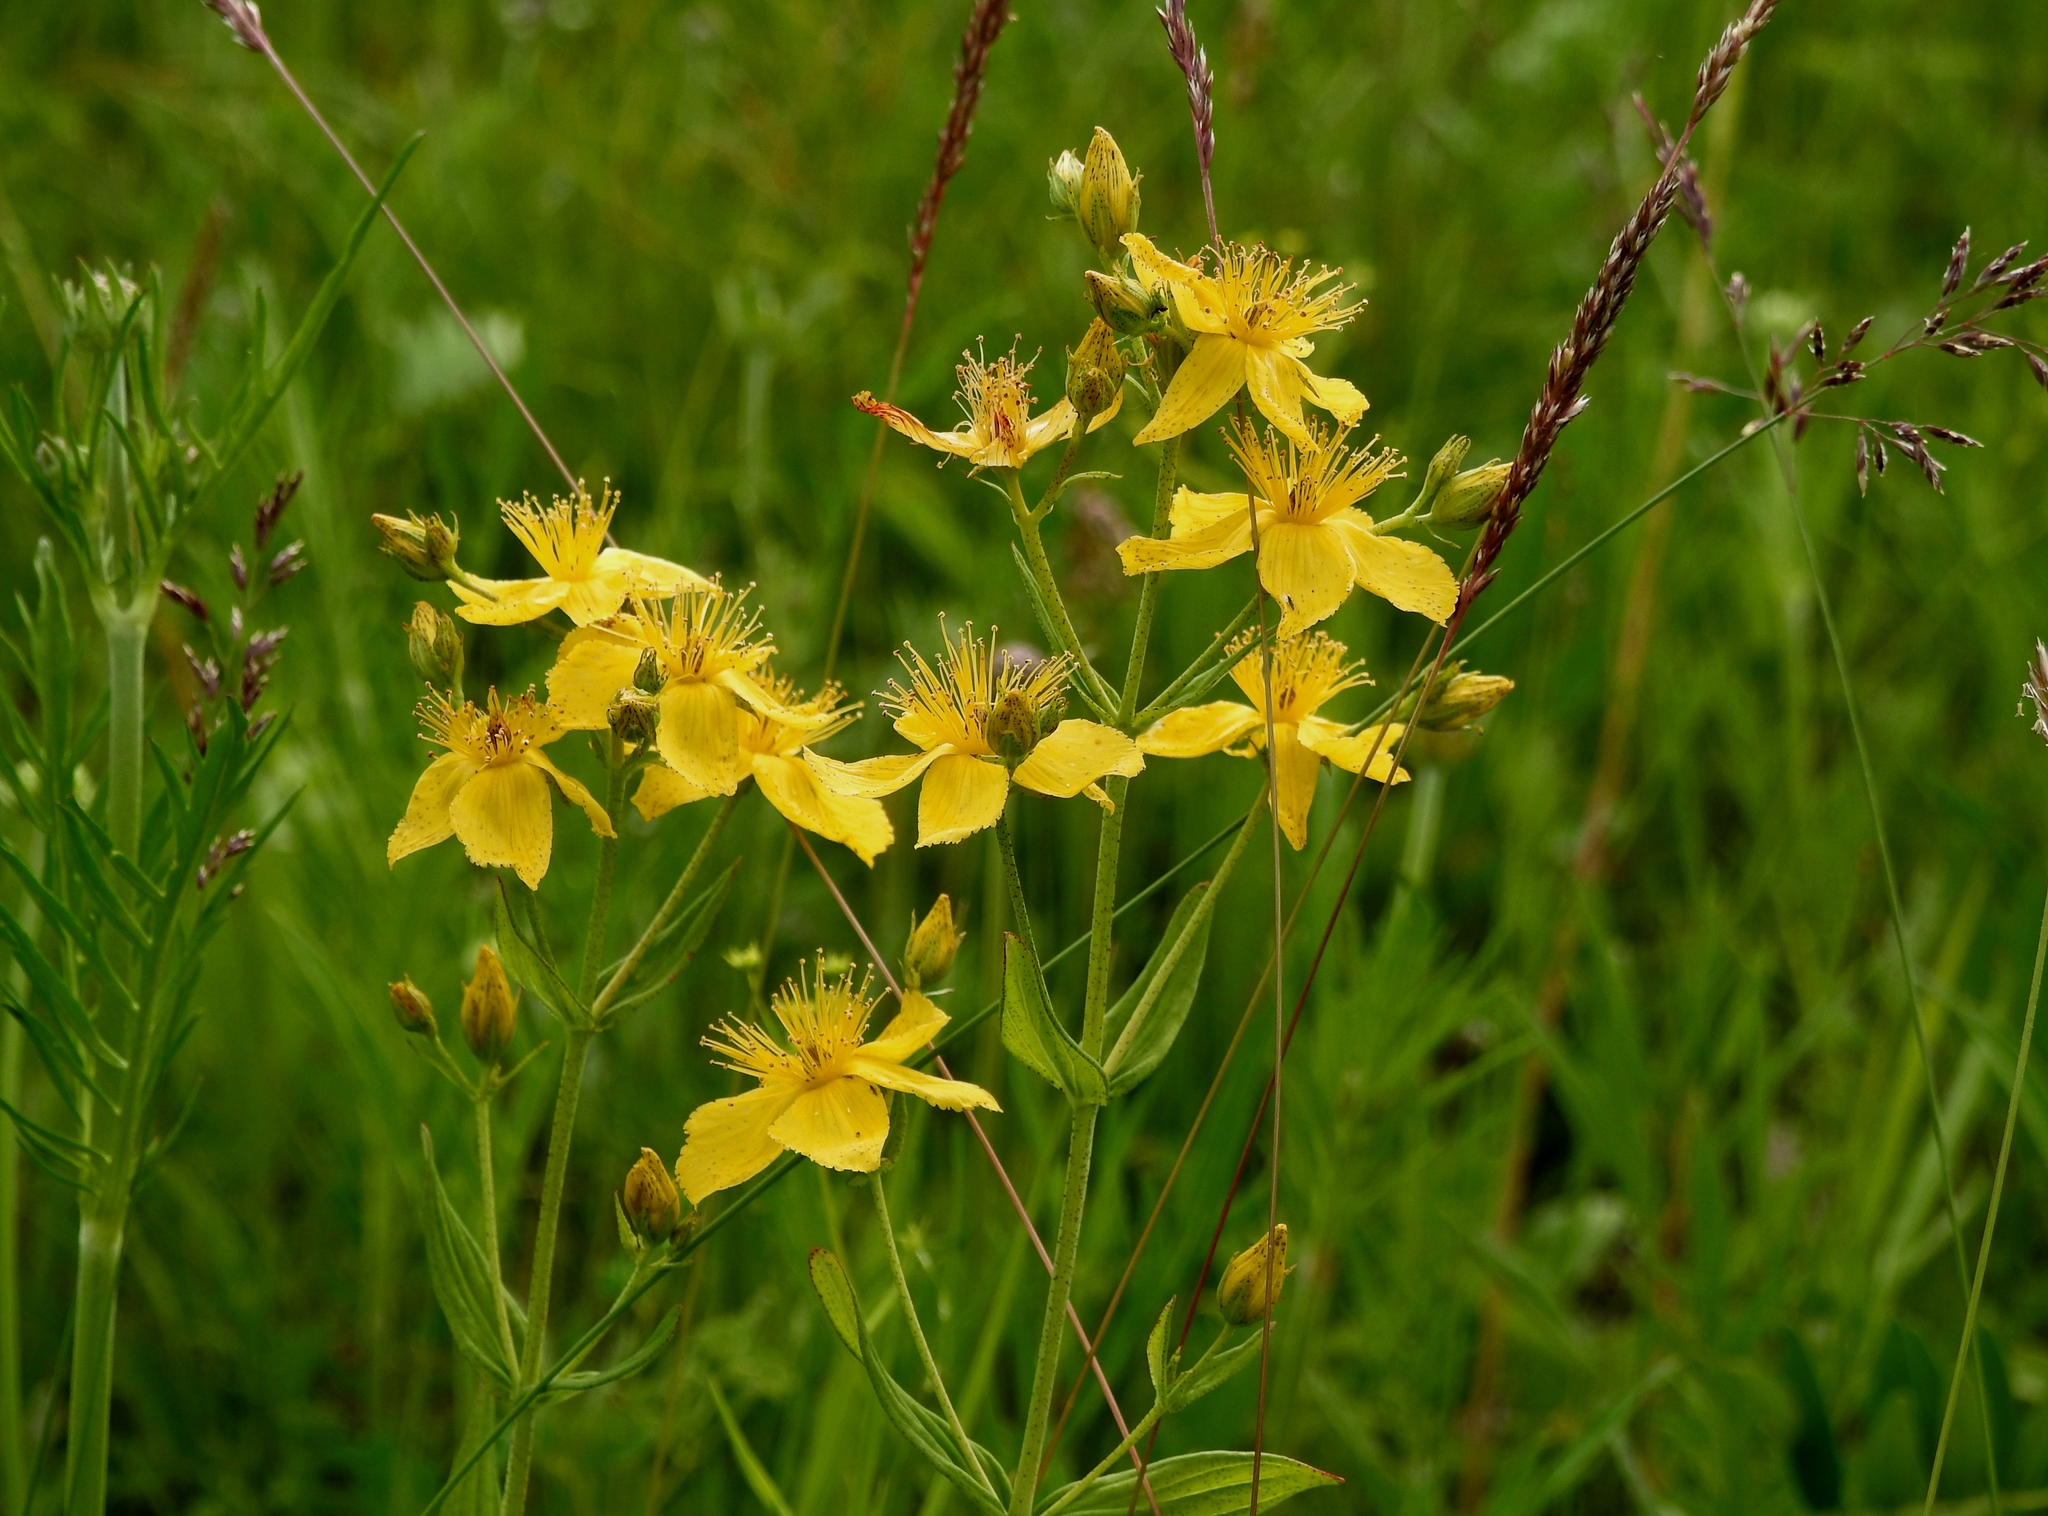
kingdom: Plantae
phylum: Tracheophyta
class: Magnoliopsida
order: Malpighiales
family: Hypericaceae
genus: Hypericum
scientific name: Hypericum attenuatum
